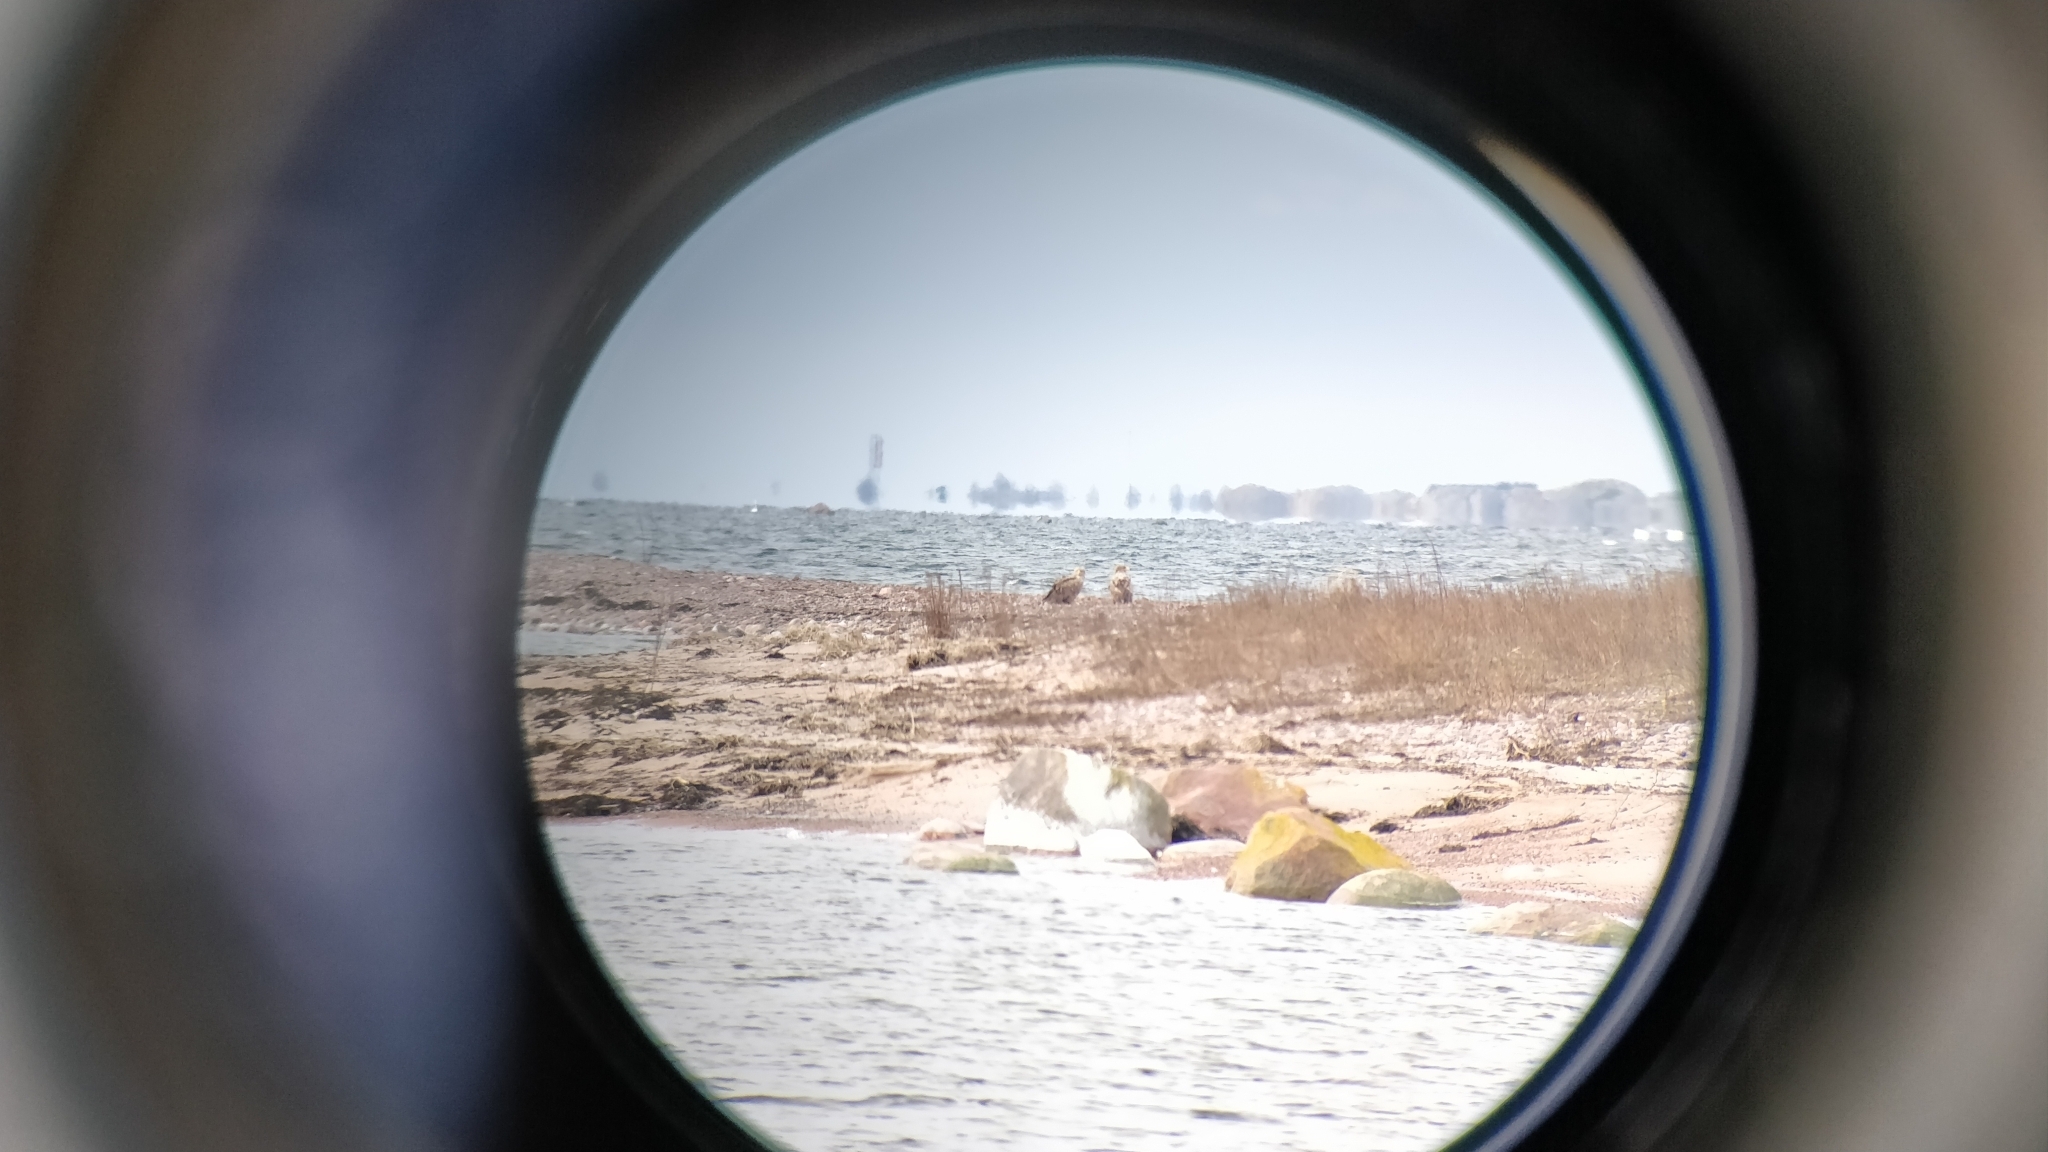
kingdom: Animalia
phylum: Chordata
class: Aves
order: Accipitriformes
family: Accipitridae
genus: Haliaeetus
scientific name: Haliaeetus albicilla
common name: White-tailed eagle
